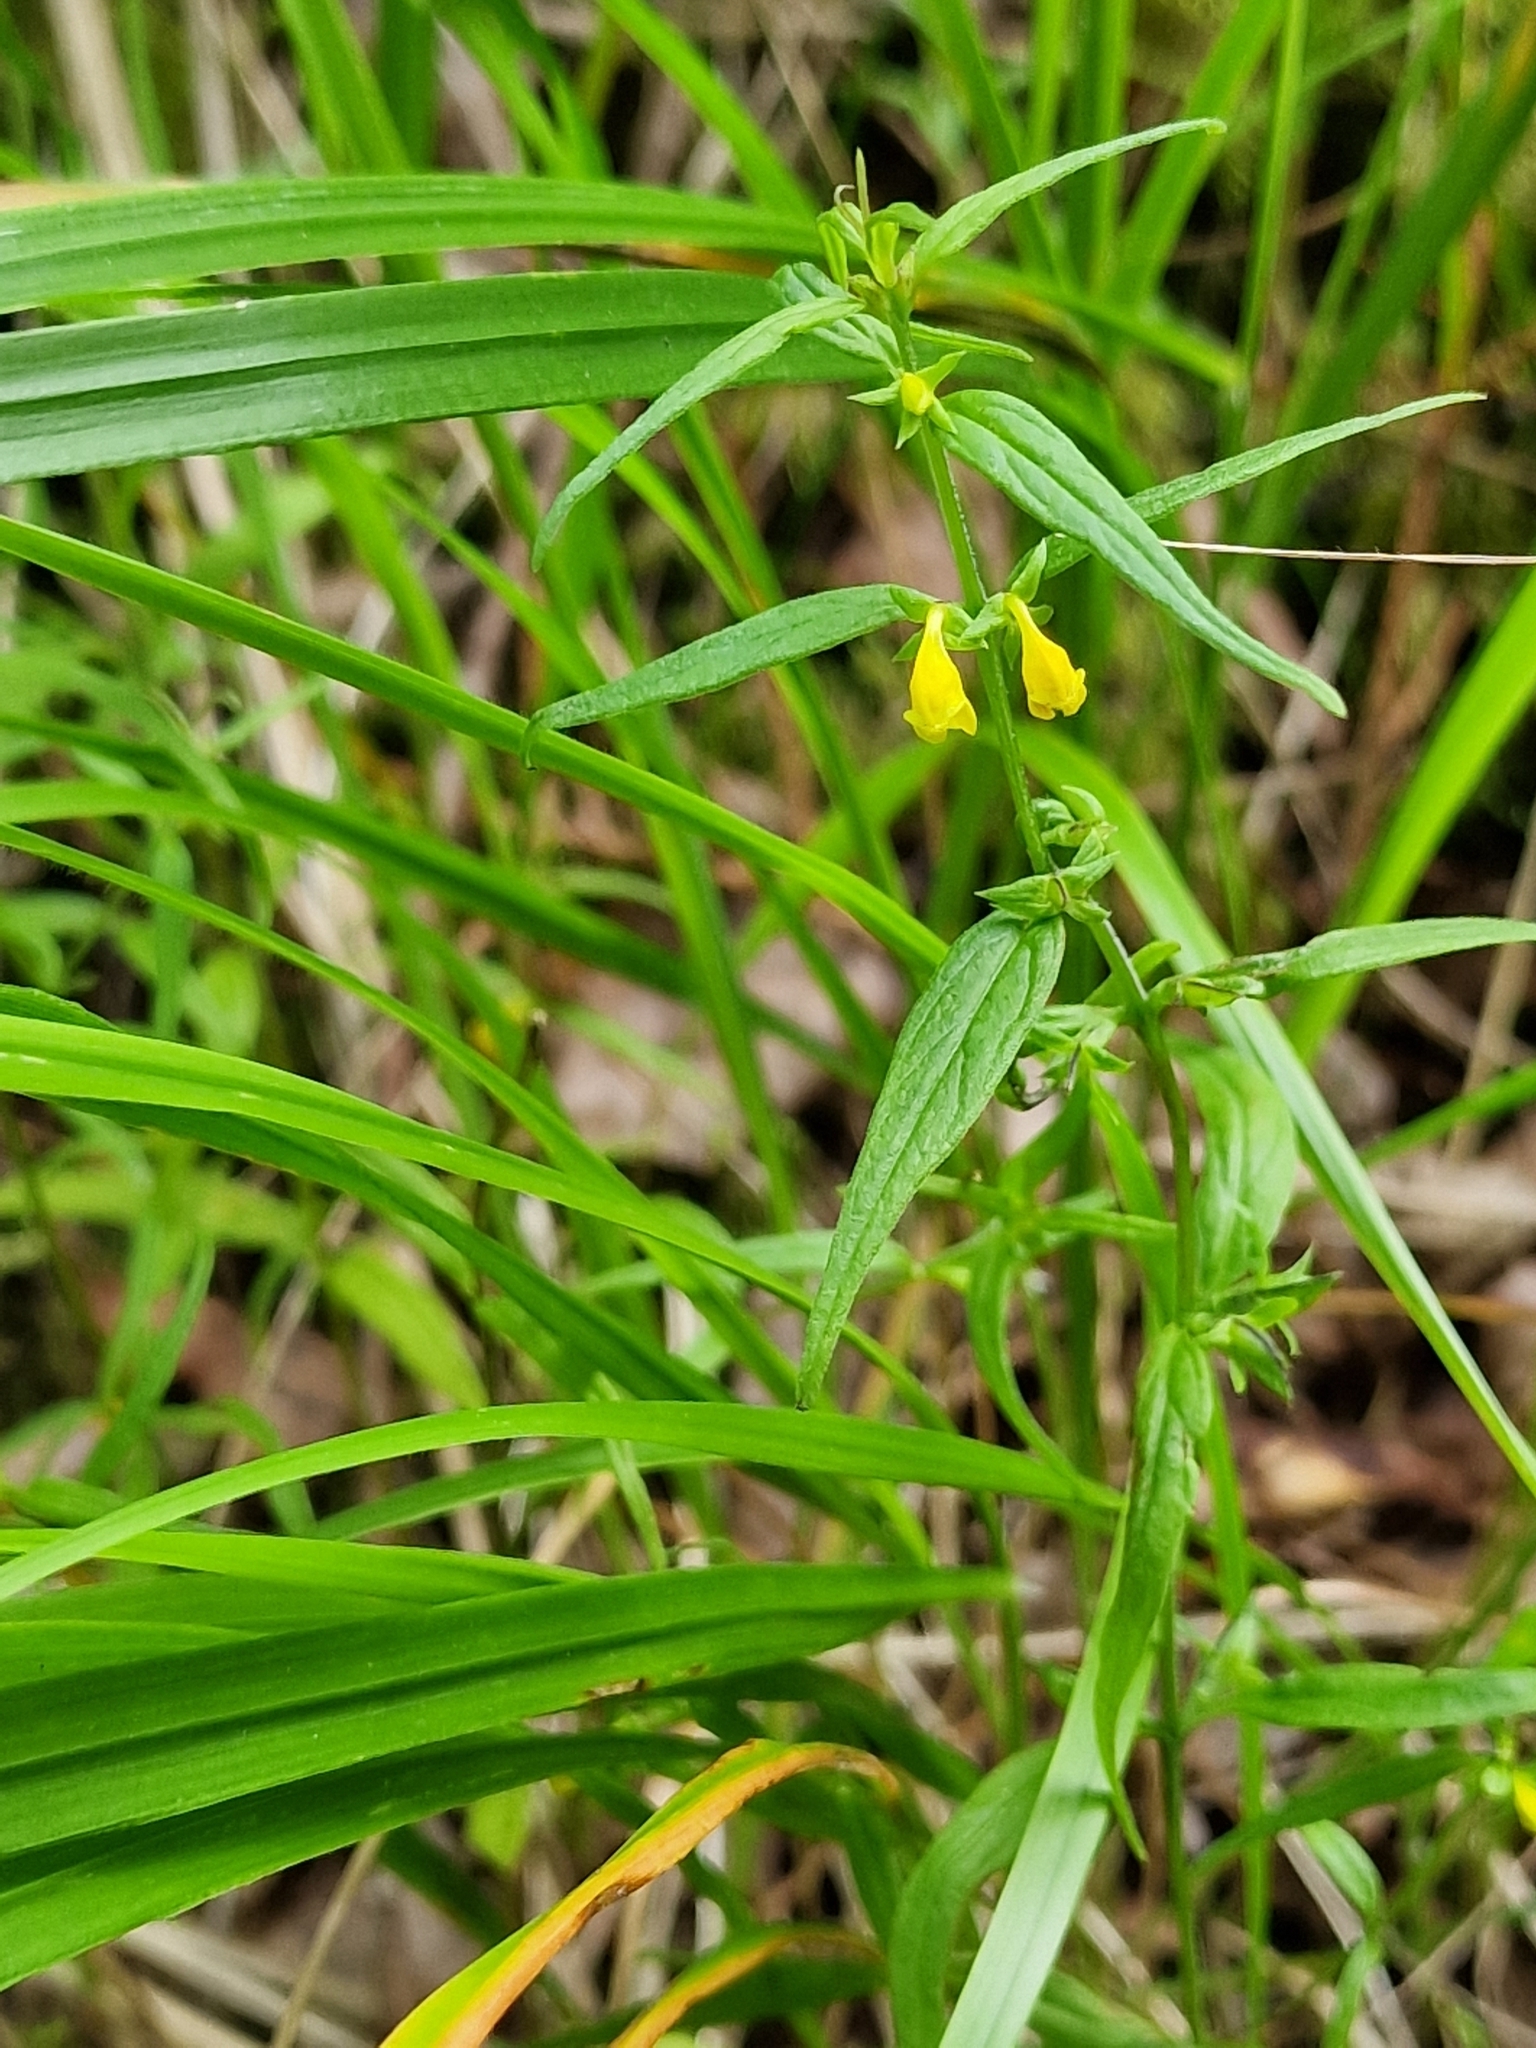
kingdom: Plantae
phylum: Tracheophyta
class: Magnoliopsida
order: Lamiales
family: Orobanchaceae
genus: Melampyrum
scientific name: Melampyrum sylvaticum
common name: Small cow-wheat
